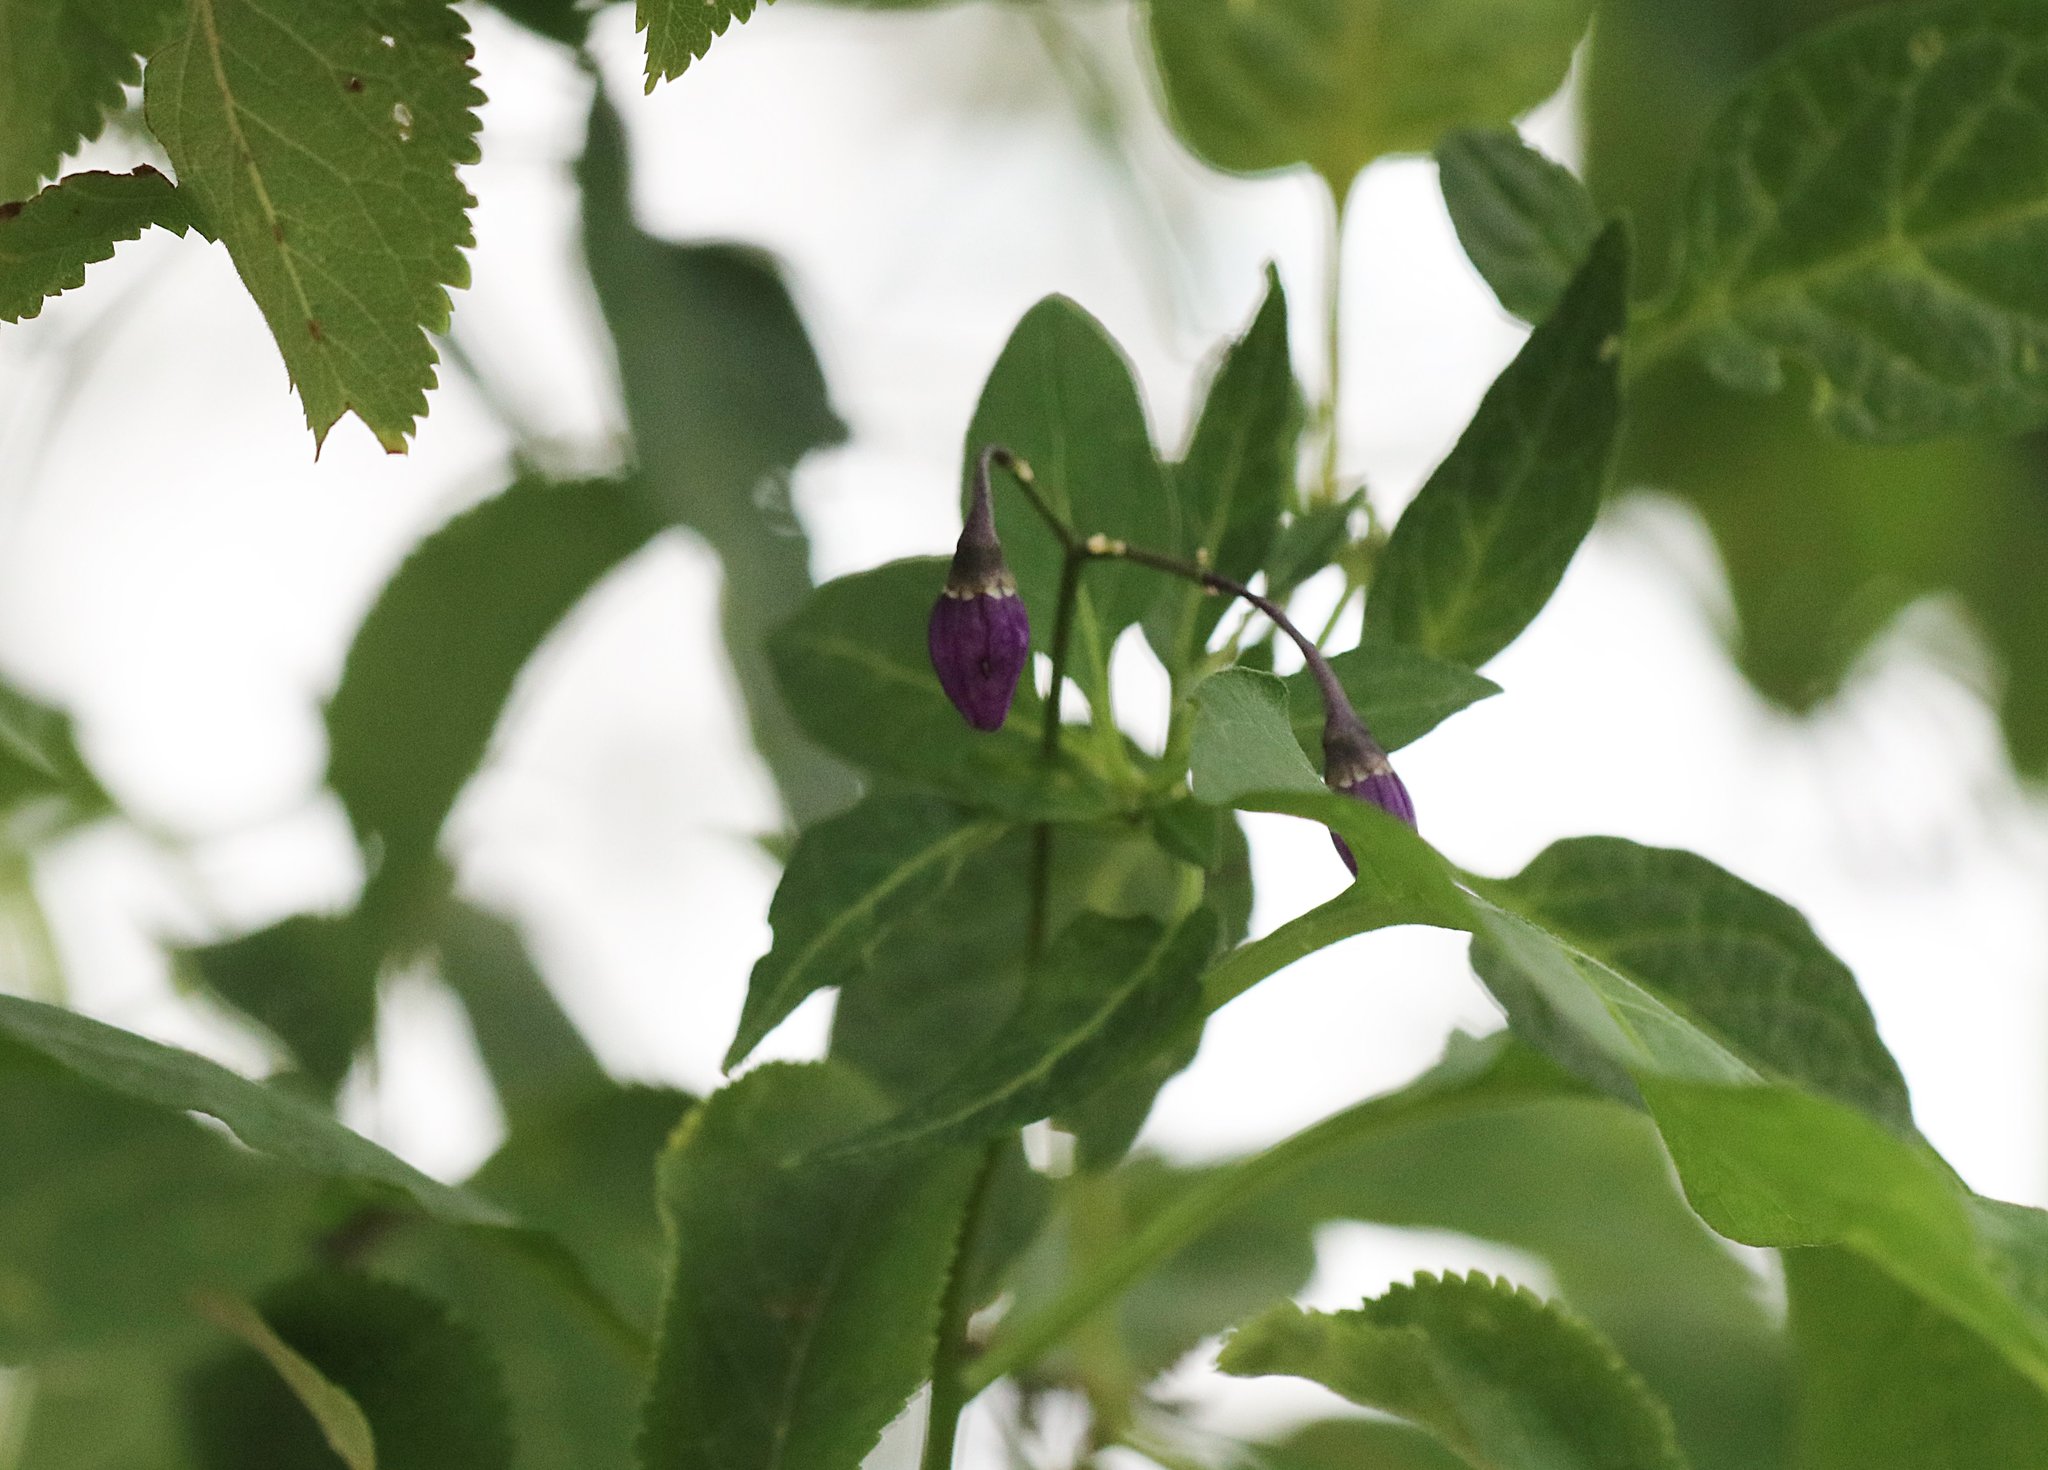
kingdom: Plantae
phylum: Tracheophyta
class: Magnoliopsida
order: Solanales
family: Solanaceae
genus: Solanum
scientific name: Solanum dulcamara
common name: Climbing nightshade
